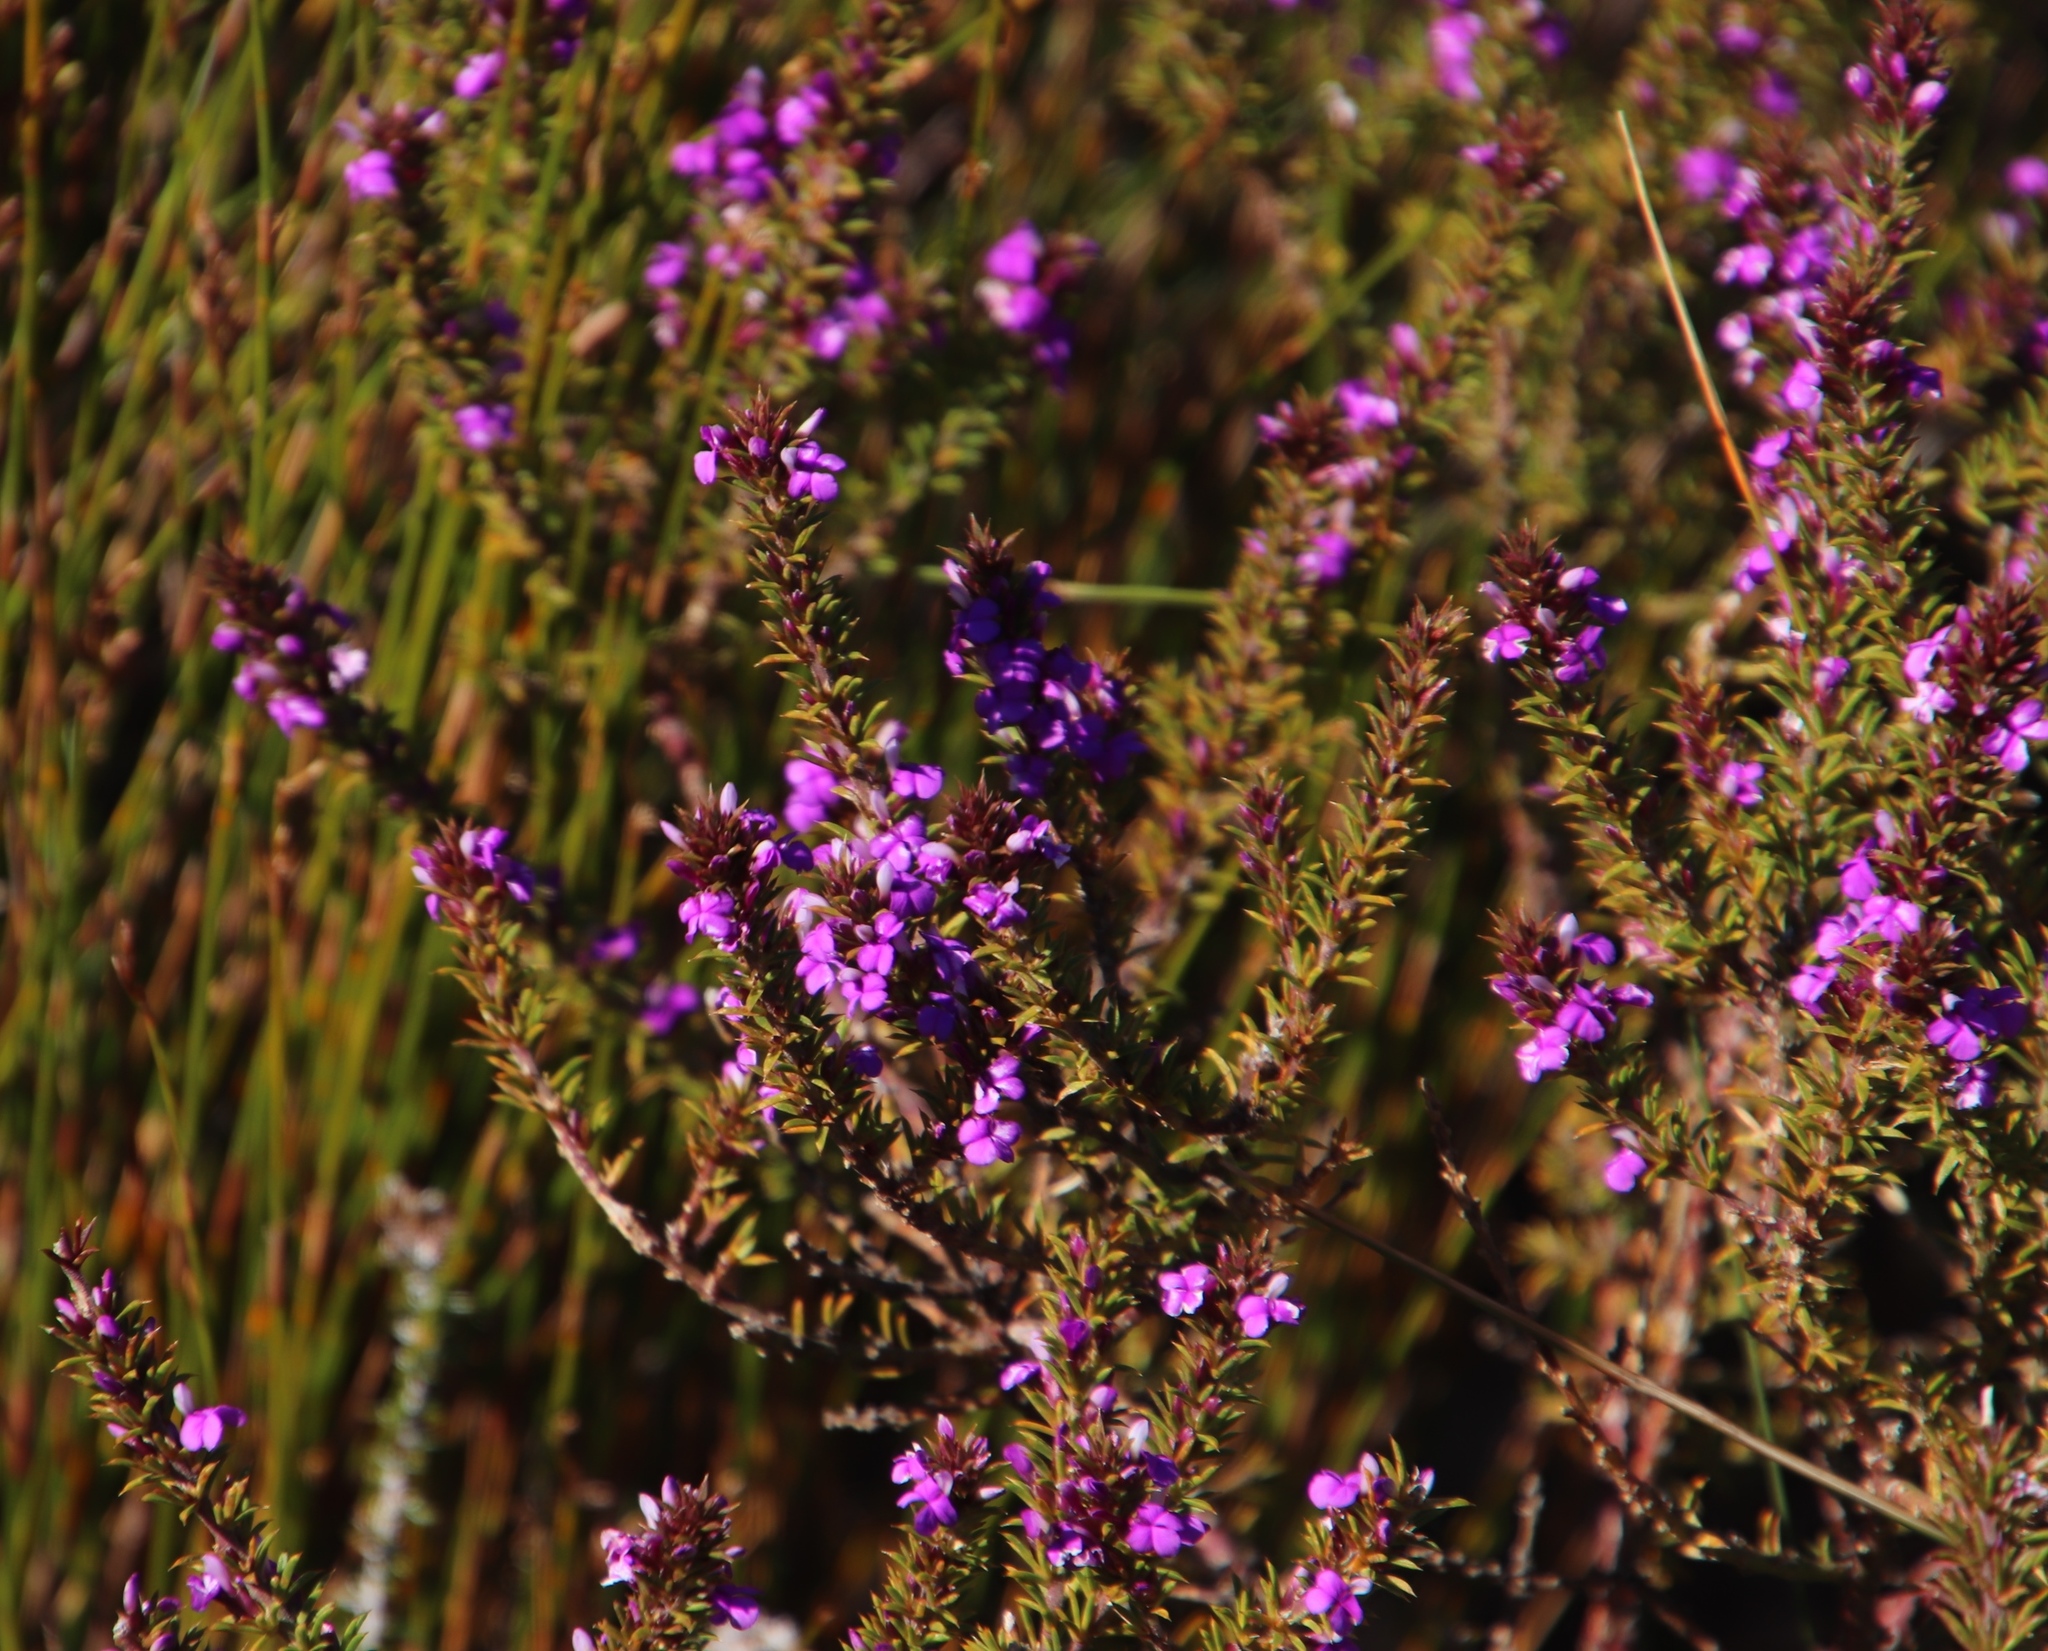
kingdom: Plantae
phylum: Tracheophyta
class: Magnoliopsida
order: Fabales
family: Polygalaceae
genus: Muraltia
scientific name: Muraltia heisteria
